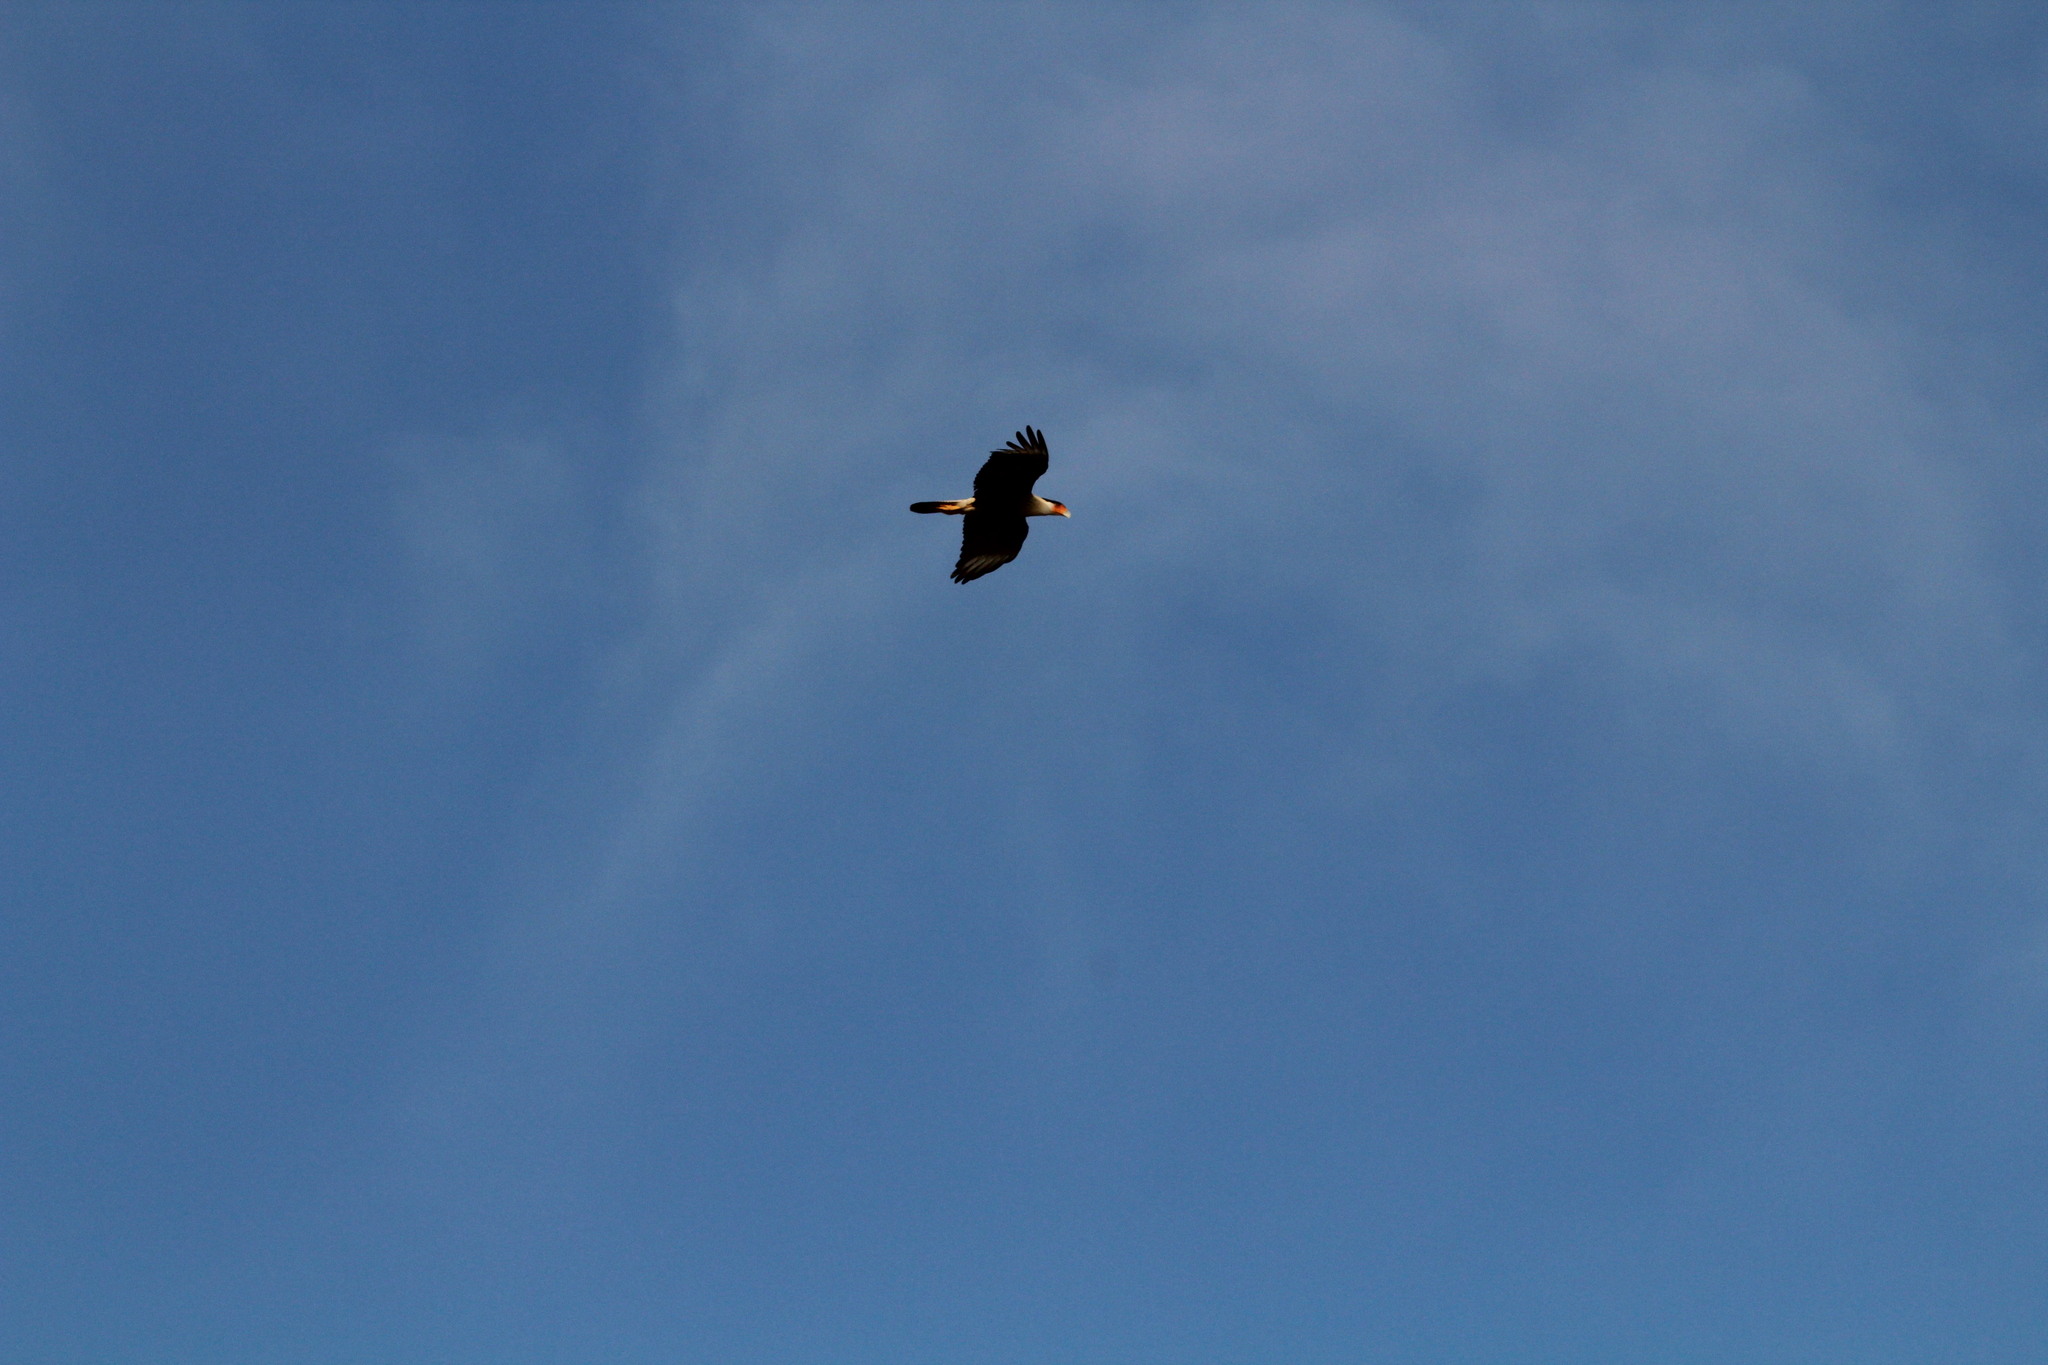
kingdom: Animalia
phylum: Chordata
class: Aves
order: Falconiformes
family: Falconidae
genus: Caracara
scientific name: Caracara plancus
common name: Southern caracara
